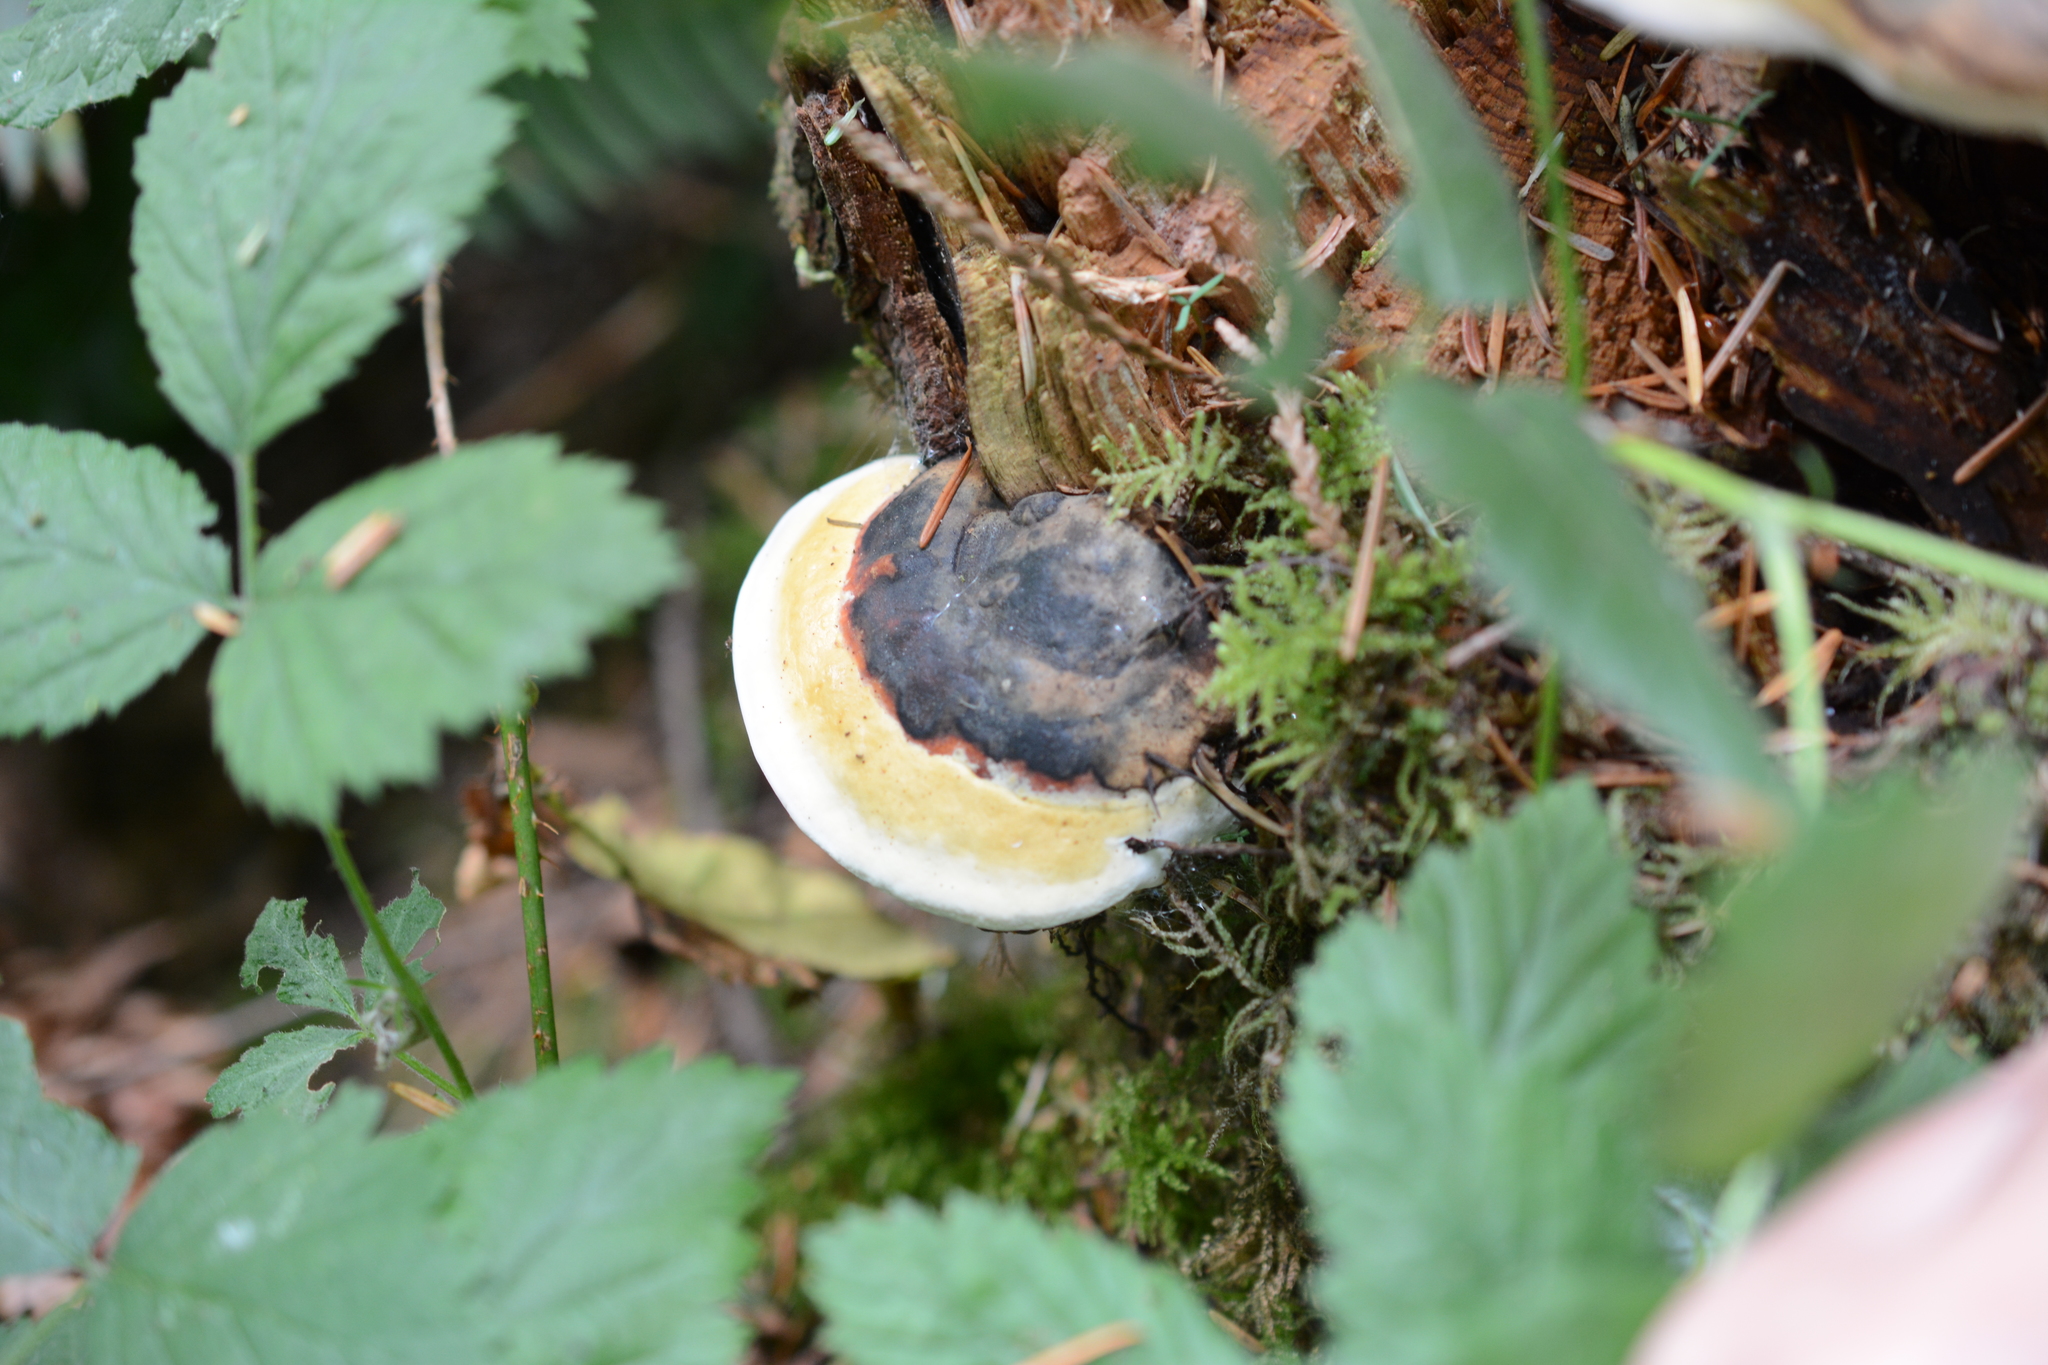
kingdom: Fungi
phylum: Basidiomycota
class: Agaricomycetes
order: Polyporales
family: Fomitopsidaceae
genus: Fomitopsis
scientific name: Fomitopsis mounceae
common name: Northern red belt
